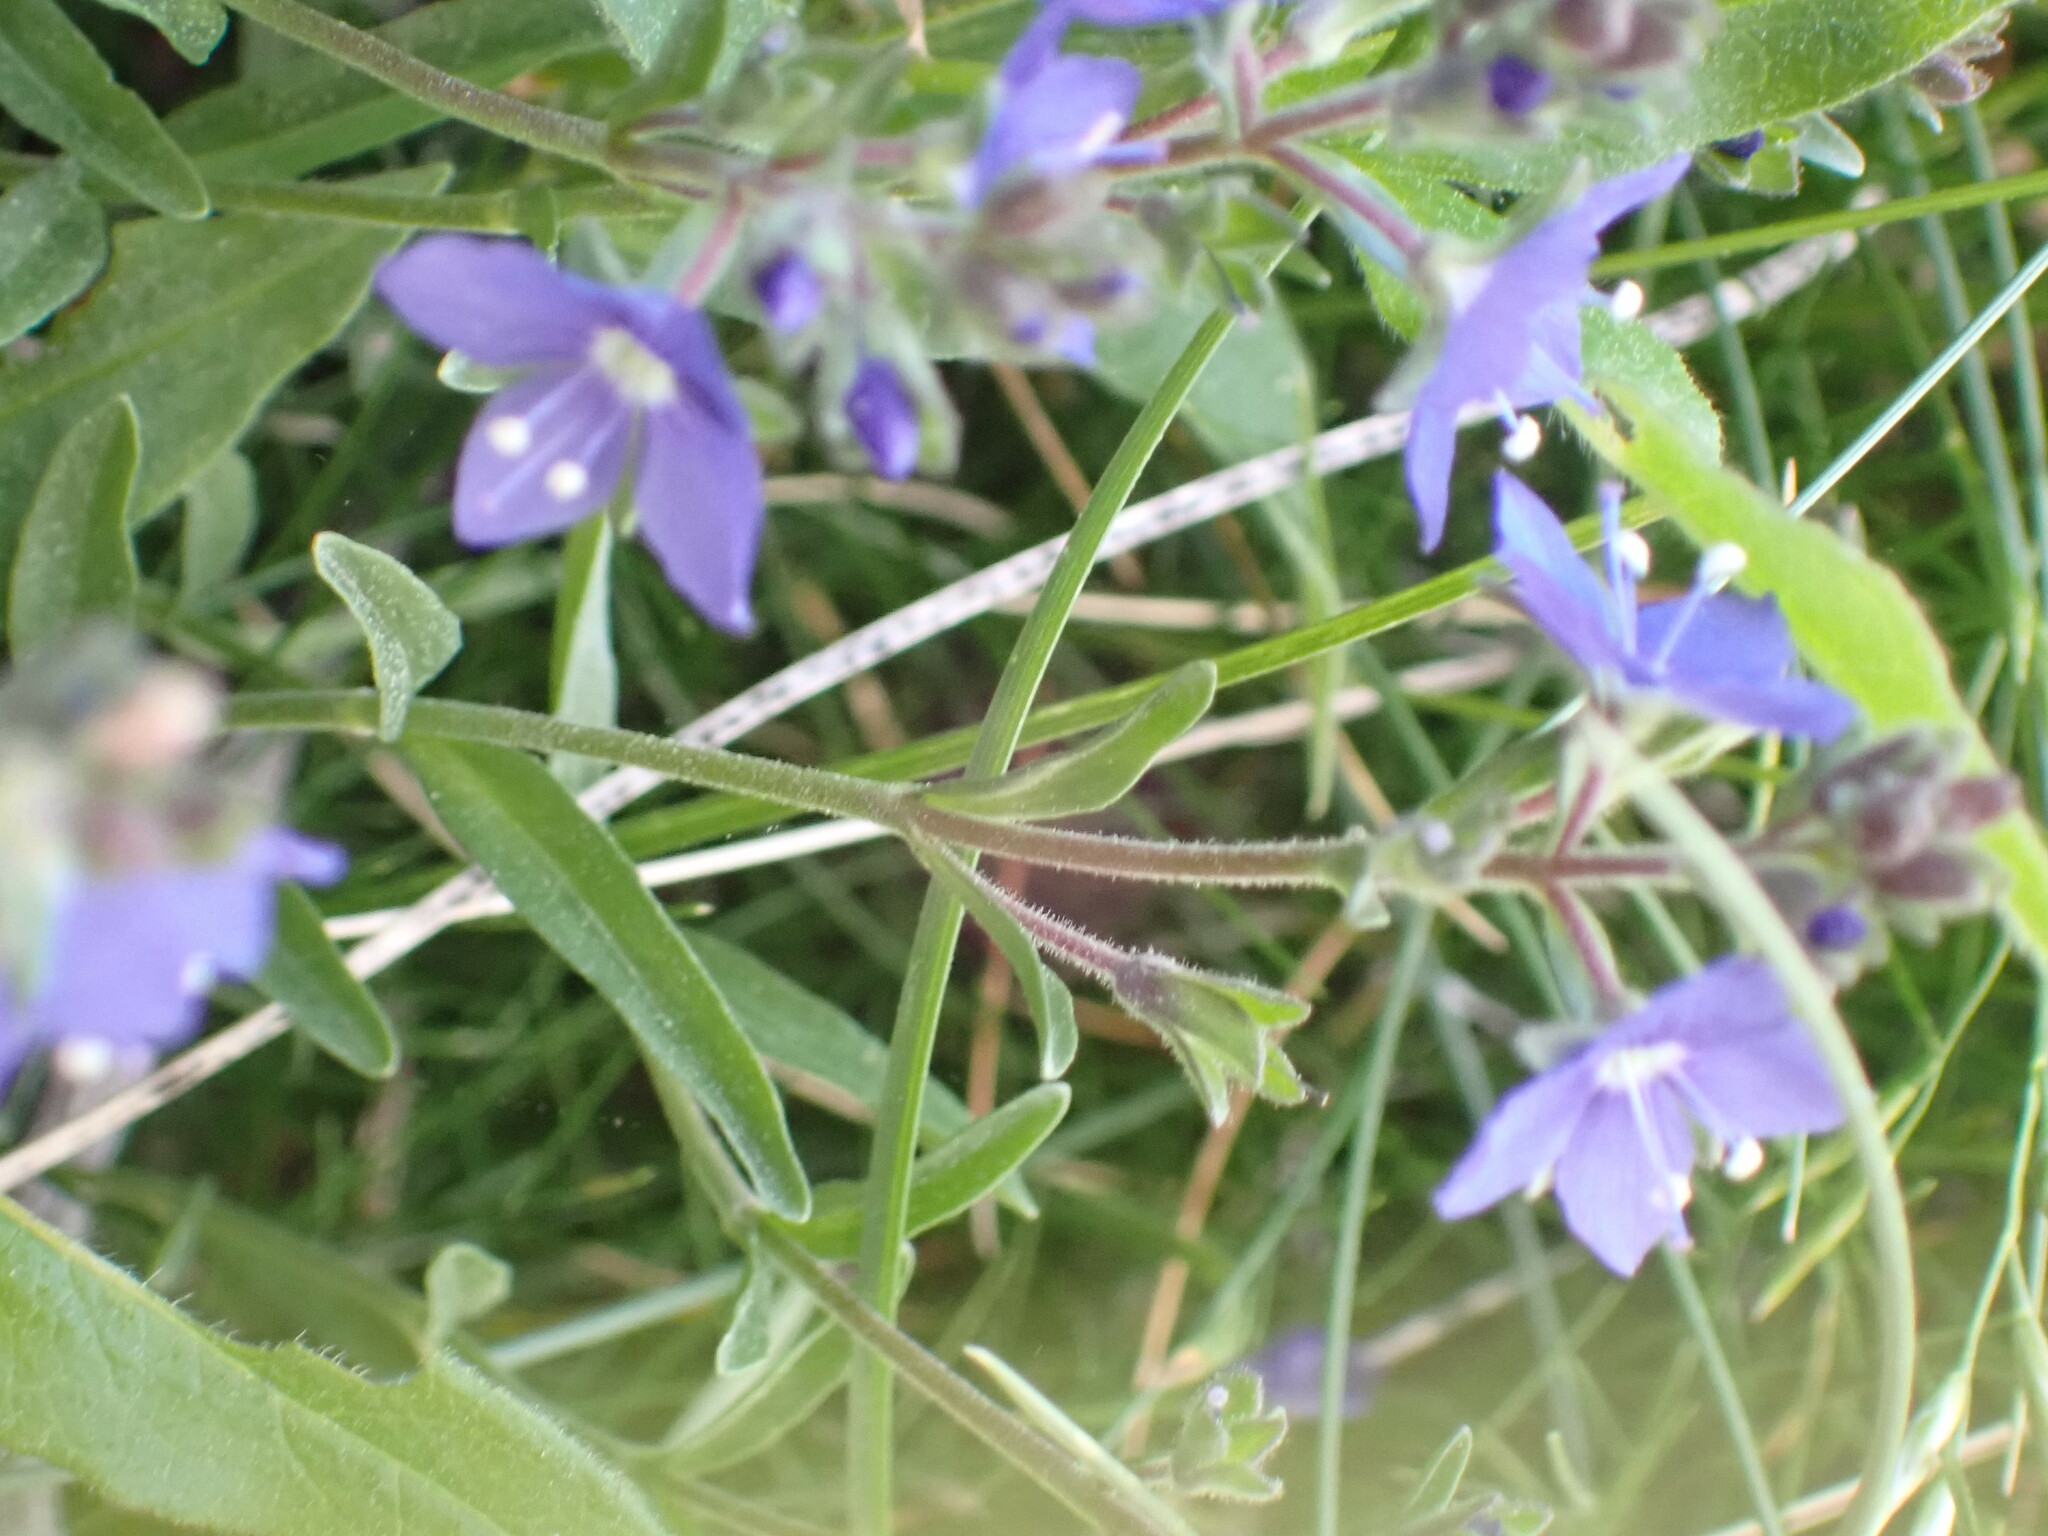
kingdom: Plantae
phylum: Tracheophyta
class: Magnoliopsida
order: Lamiales
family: Plantaginaceae
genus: Veronica
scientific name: Veronica fruticans
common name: Rock speedwell
